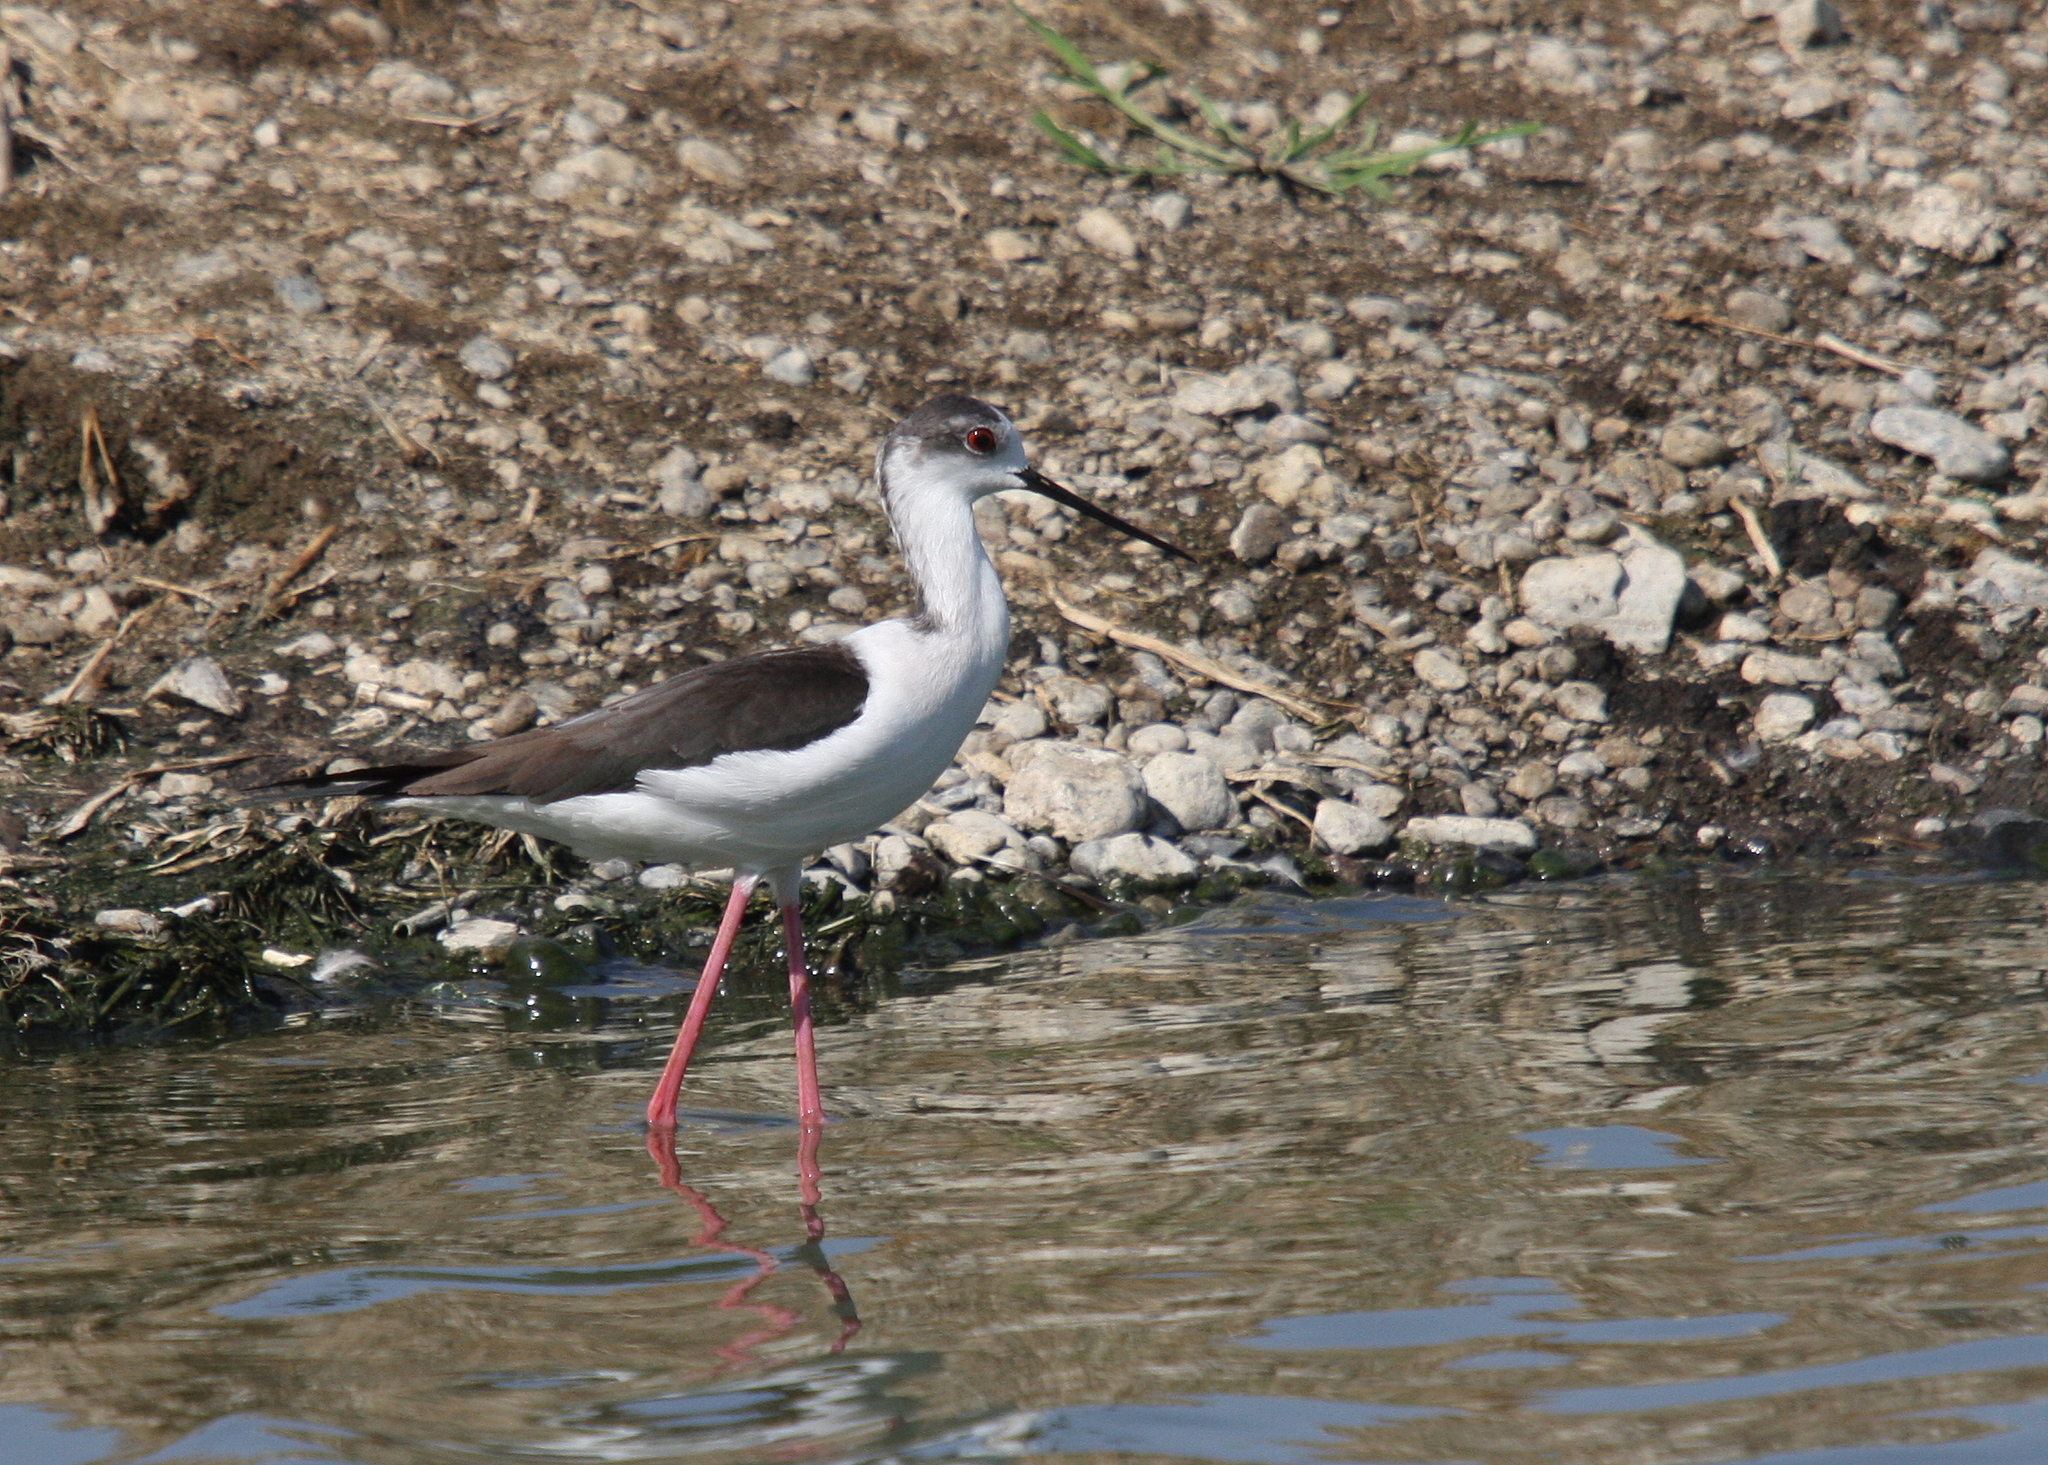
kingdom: Animalia
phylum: Chordata
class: Aves
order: Charadriiformes
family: Recurvirostridae
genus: Himantopus
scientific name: Himantopus himantopus
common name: Black-winged stilt
